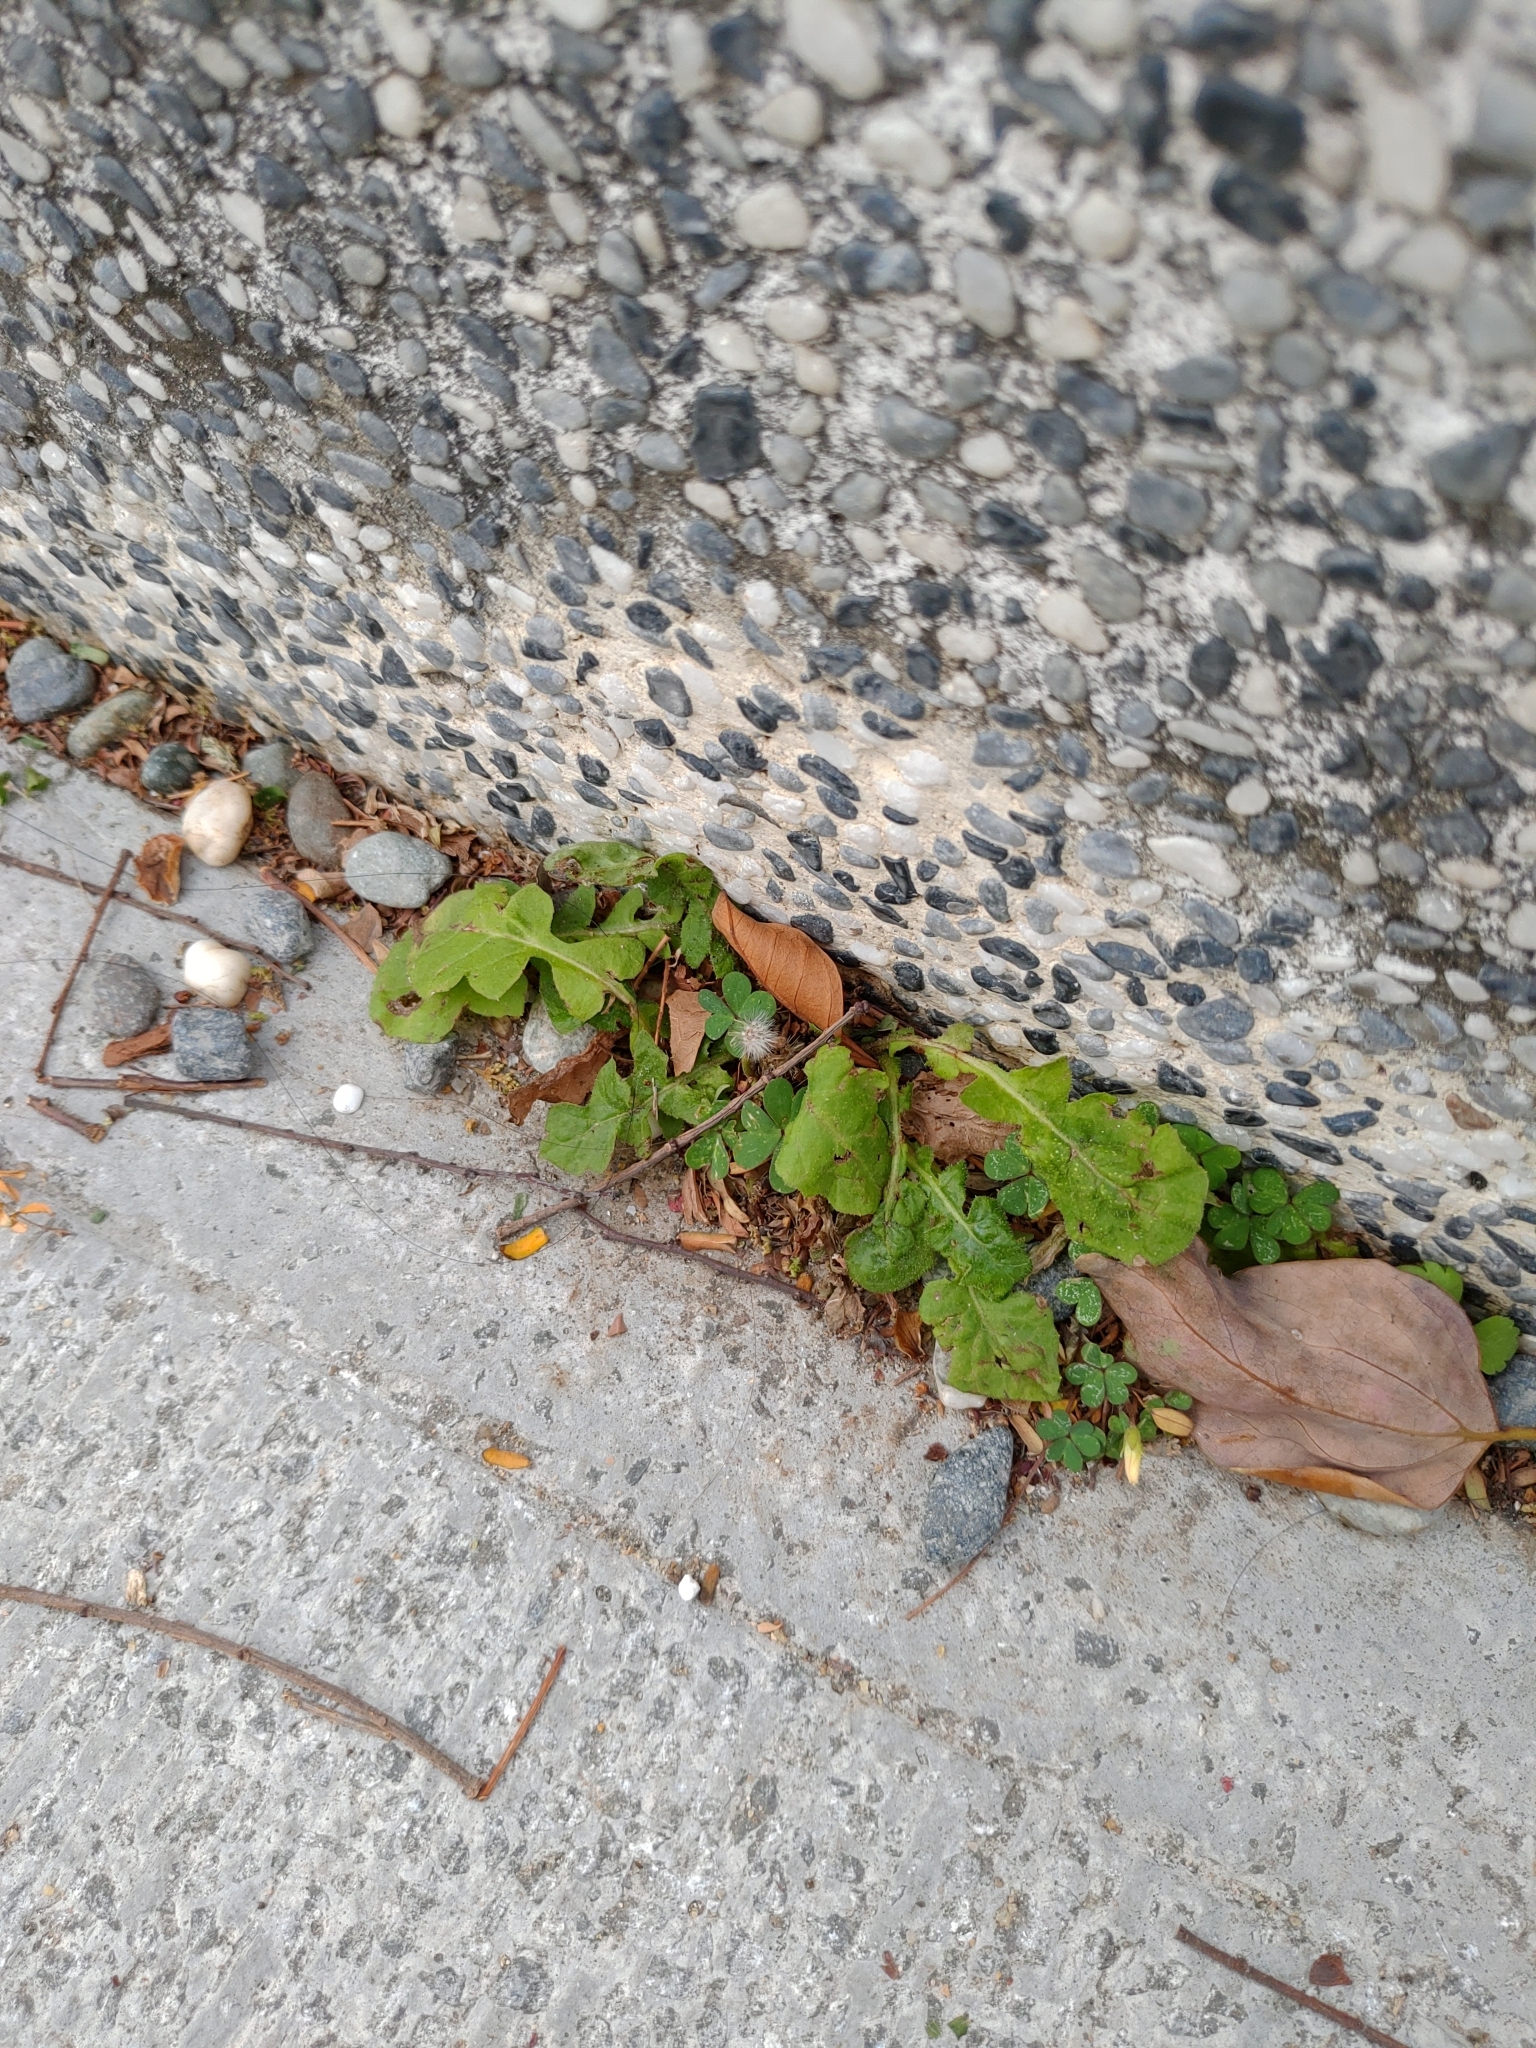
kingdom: Plantae
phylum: Tracheophyta
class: Magnoliopsida
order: Asterales
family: Asteraceae
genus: Youngia
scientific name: Youngia japonica
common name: Oriental false hawksbeard
